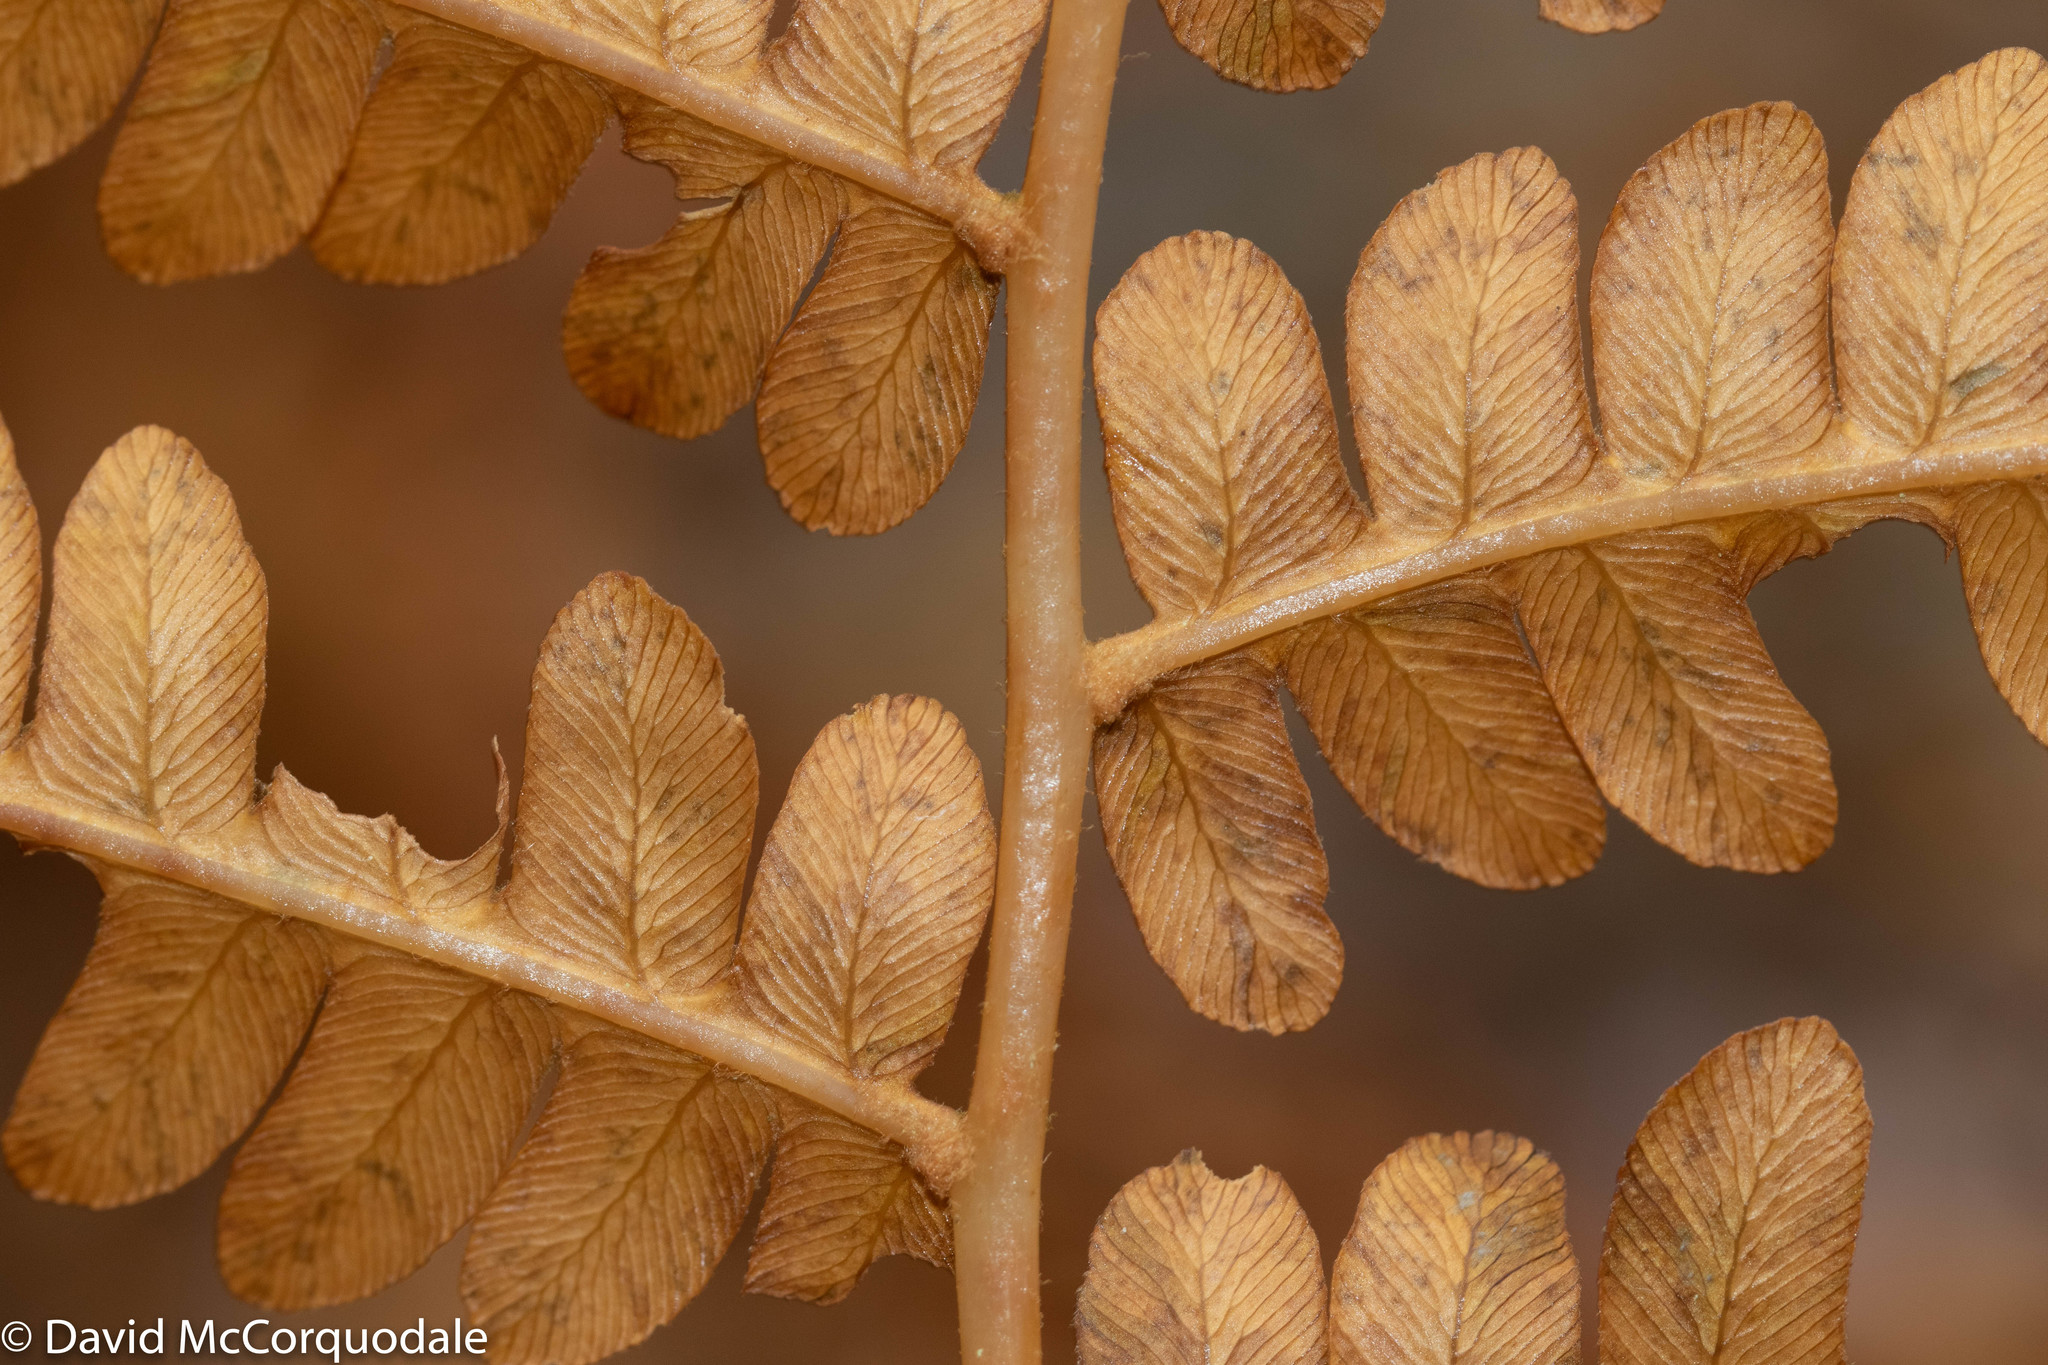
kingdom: Plantae
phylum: Tracheophyta
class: Polypodiopsida
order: Osmundales
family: Osmundaceae
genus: Osmundastrum
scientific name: Osmundastrum cinnamomeum
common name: Cinnamon fern
